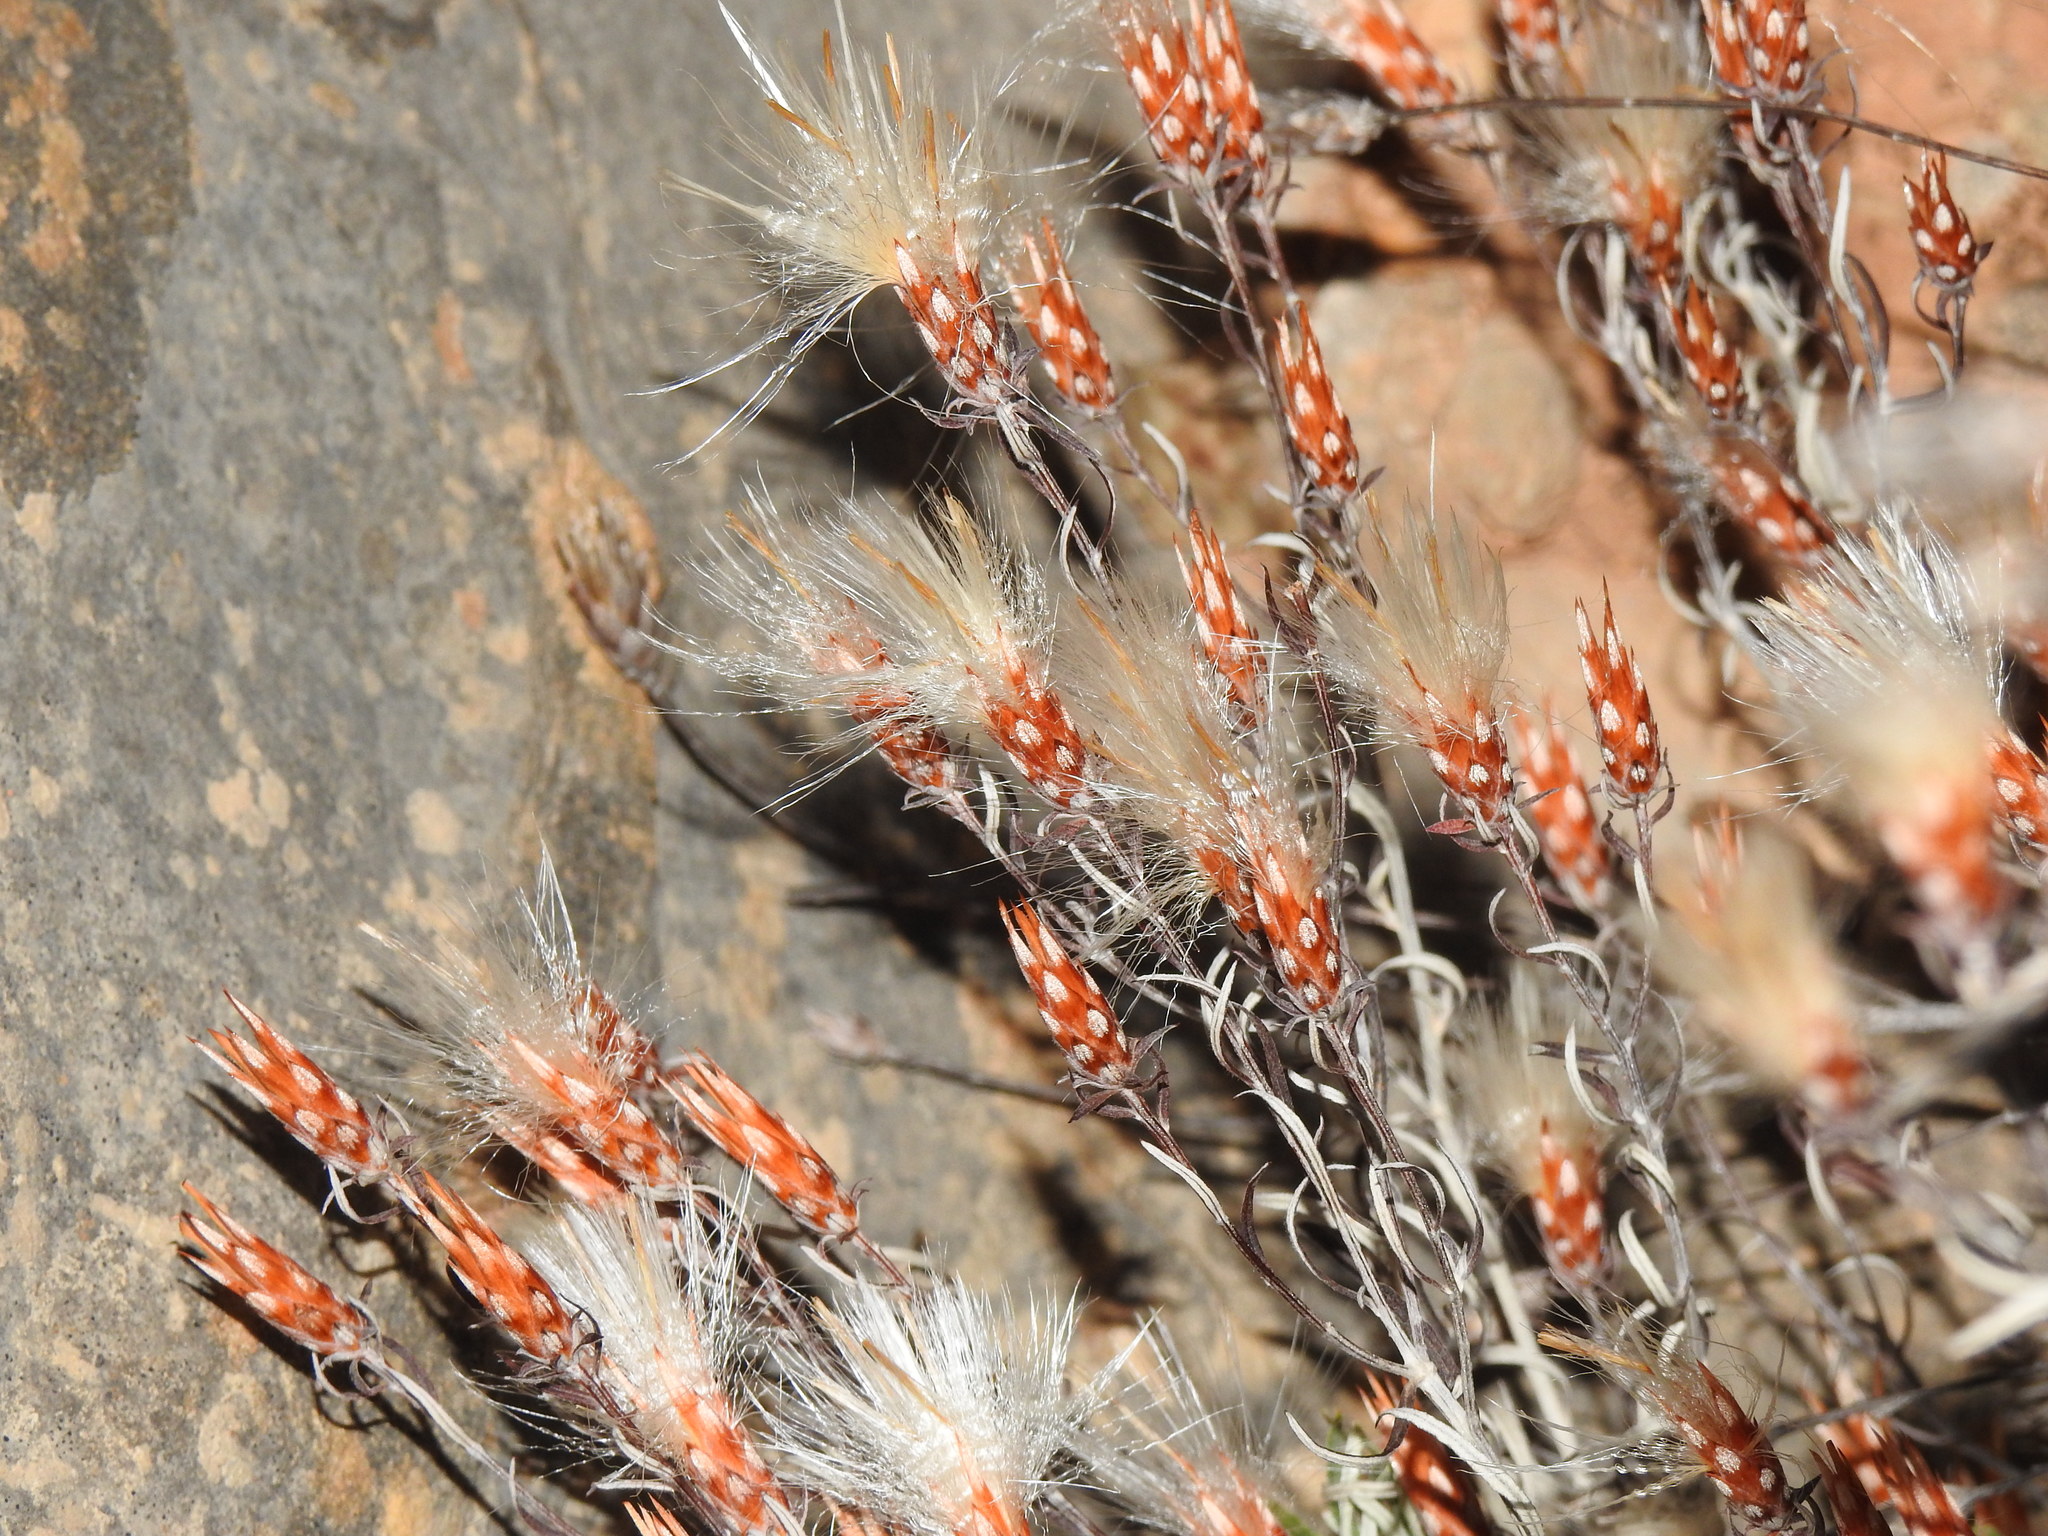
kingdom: Plantae
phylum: Tracheophyta
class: Magnoliopsida
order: Asterales
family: Asteraceae
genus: Staehelina
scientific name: Staehelina dubia
